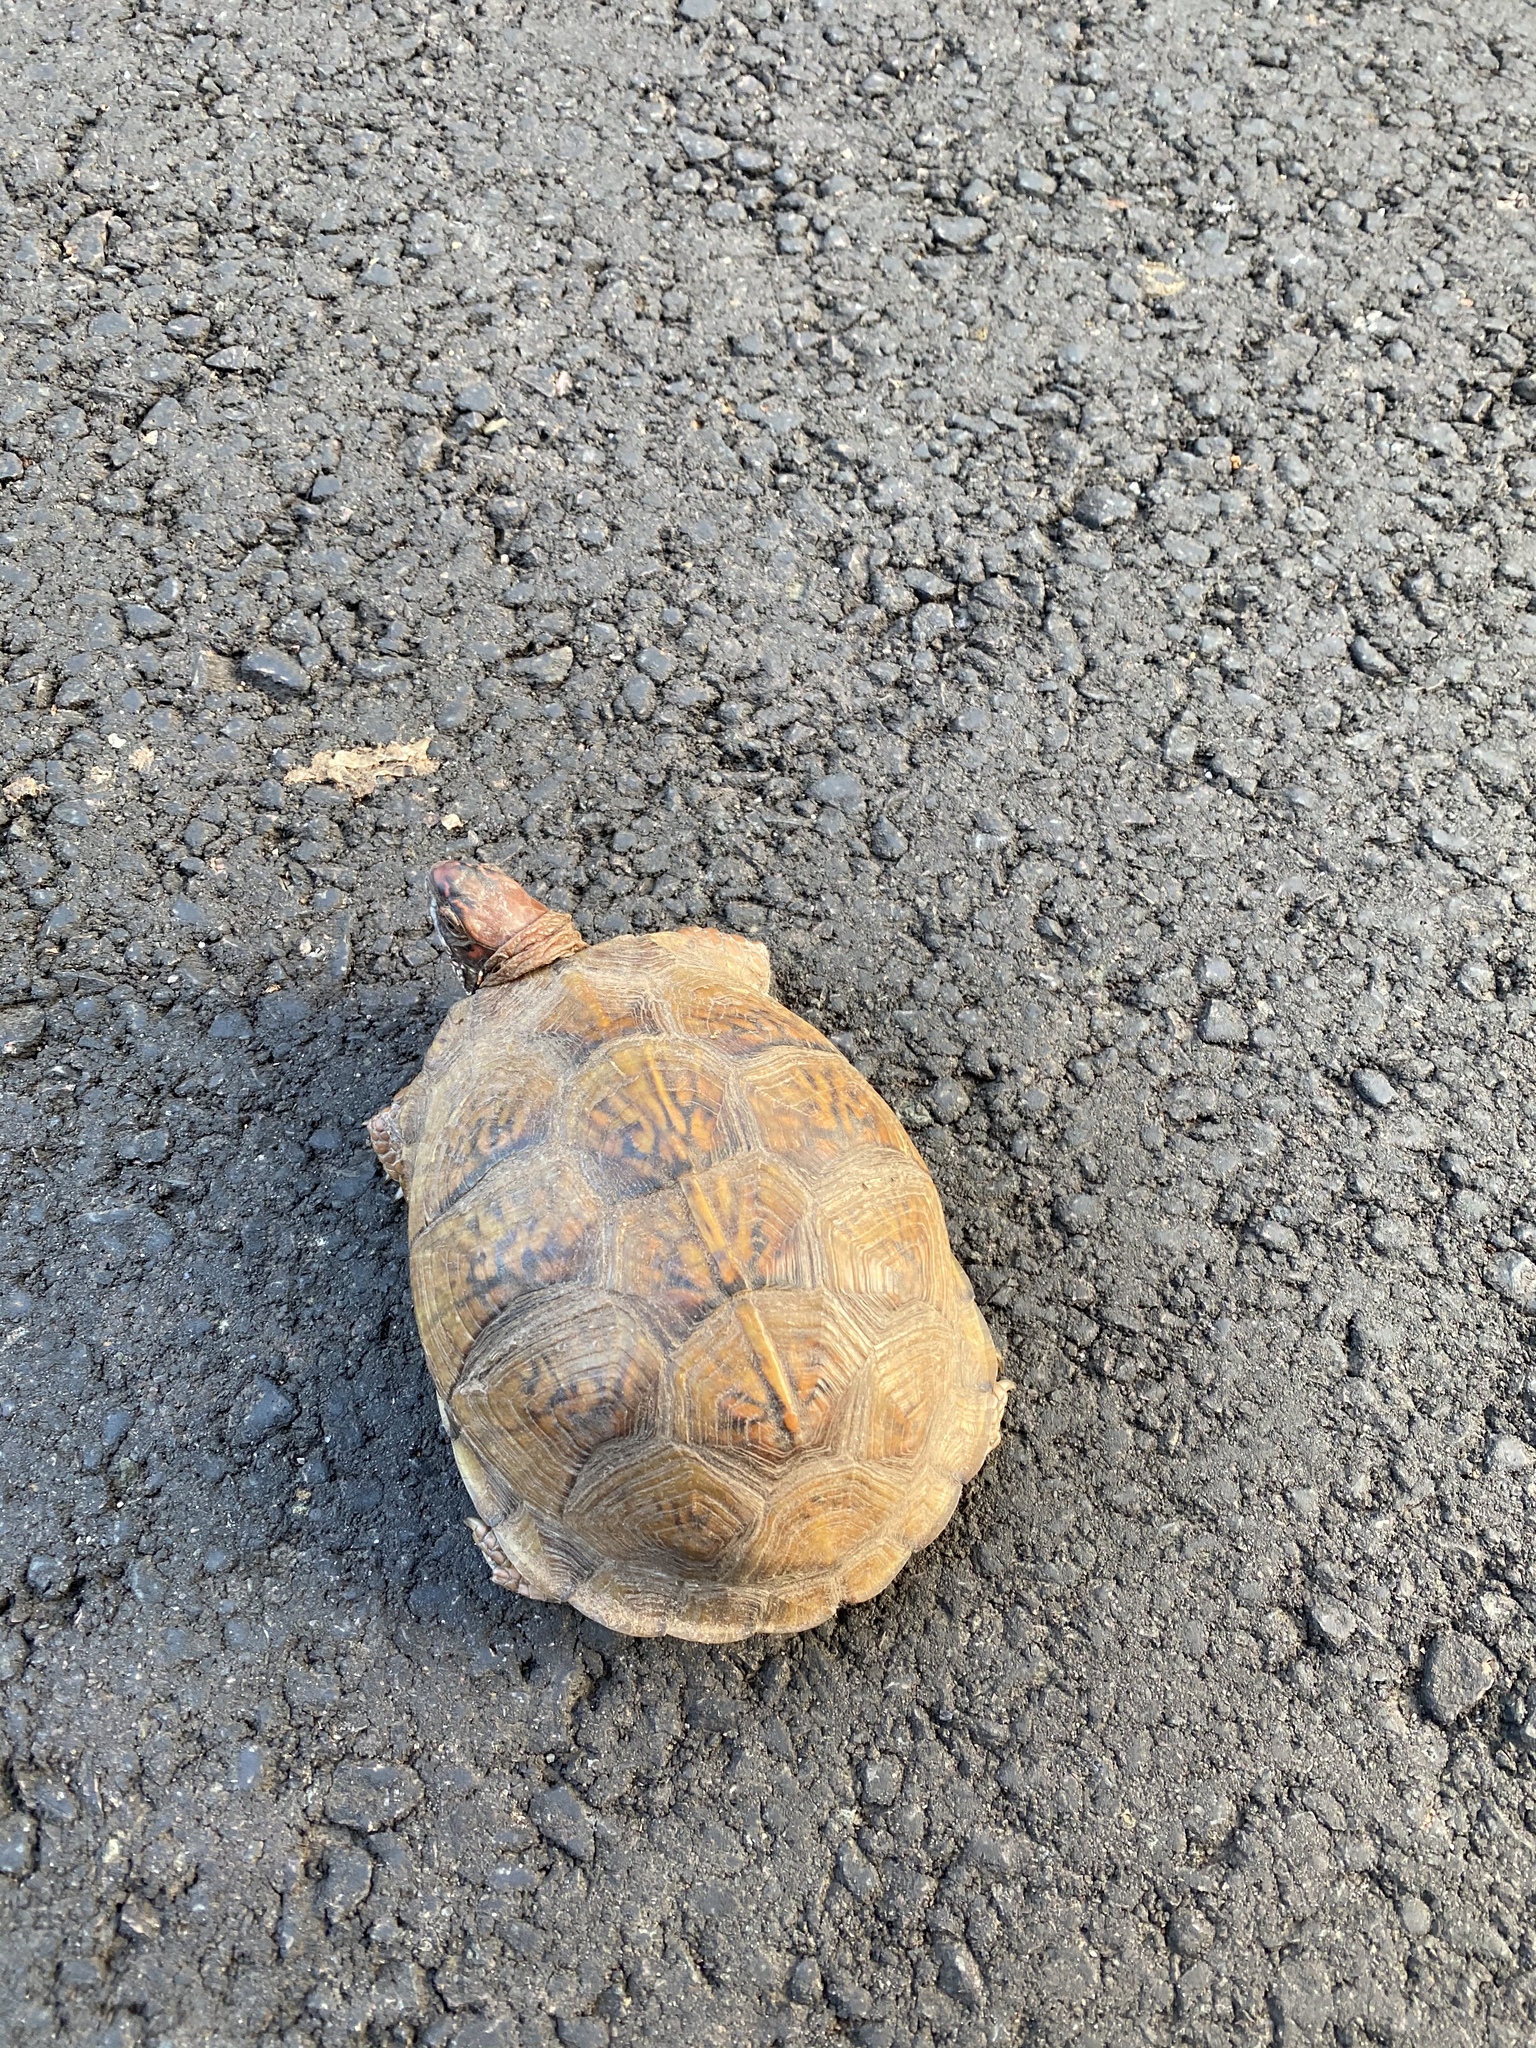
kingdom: Animalia
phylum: Chordata
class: Testudines
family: Emydidae
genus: Terrapene
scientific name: Terrapene carolina
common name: Common box turtle
